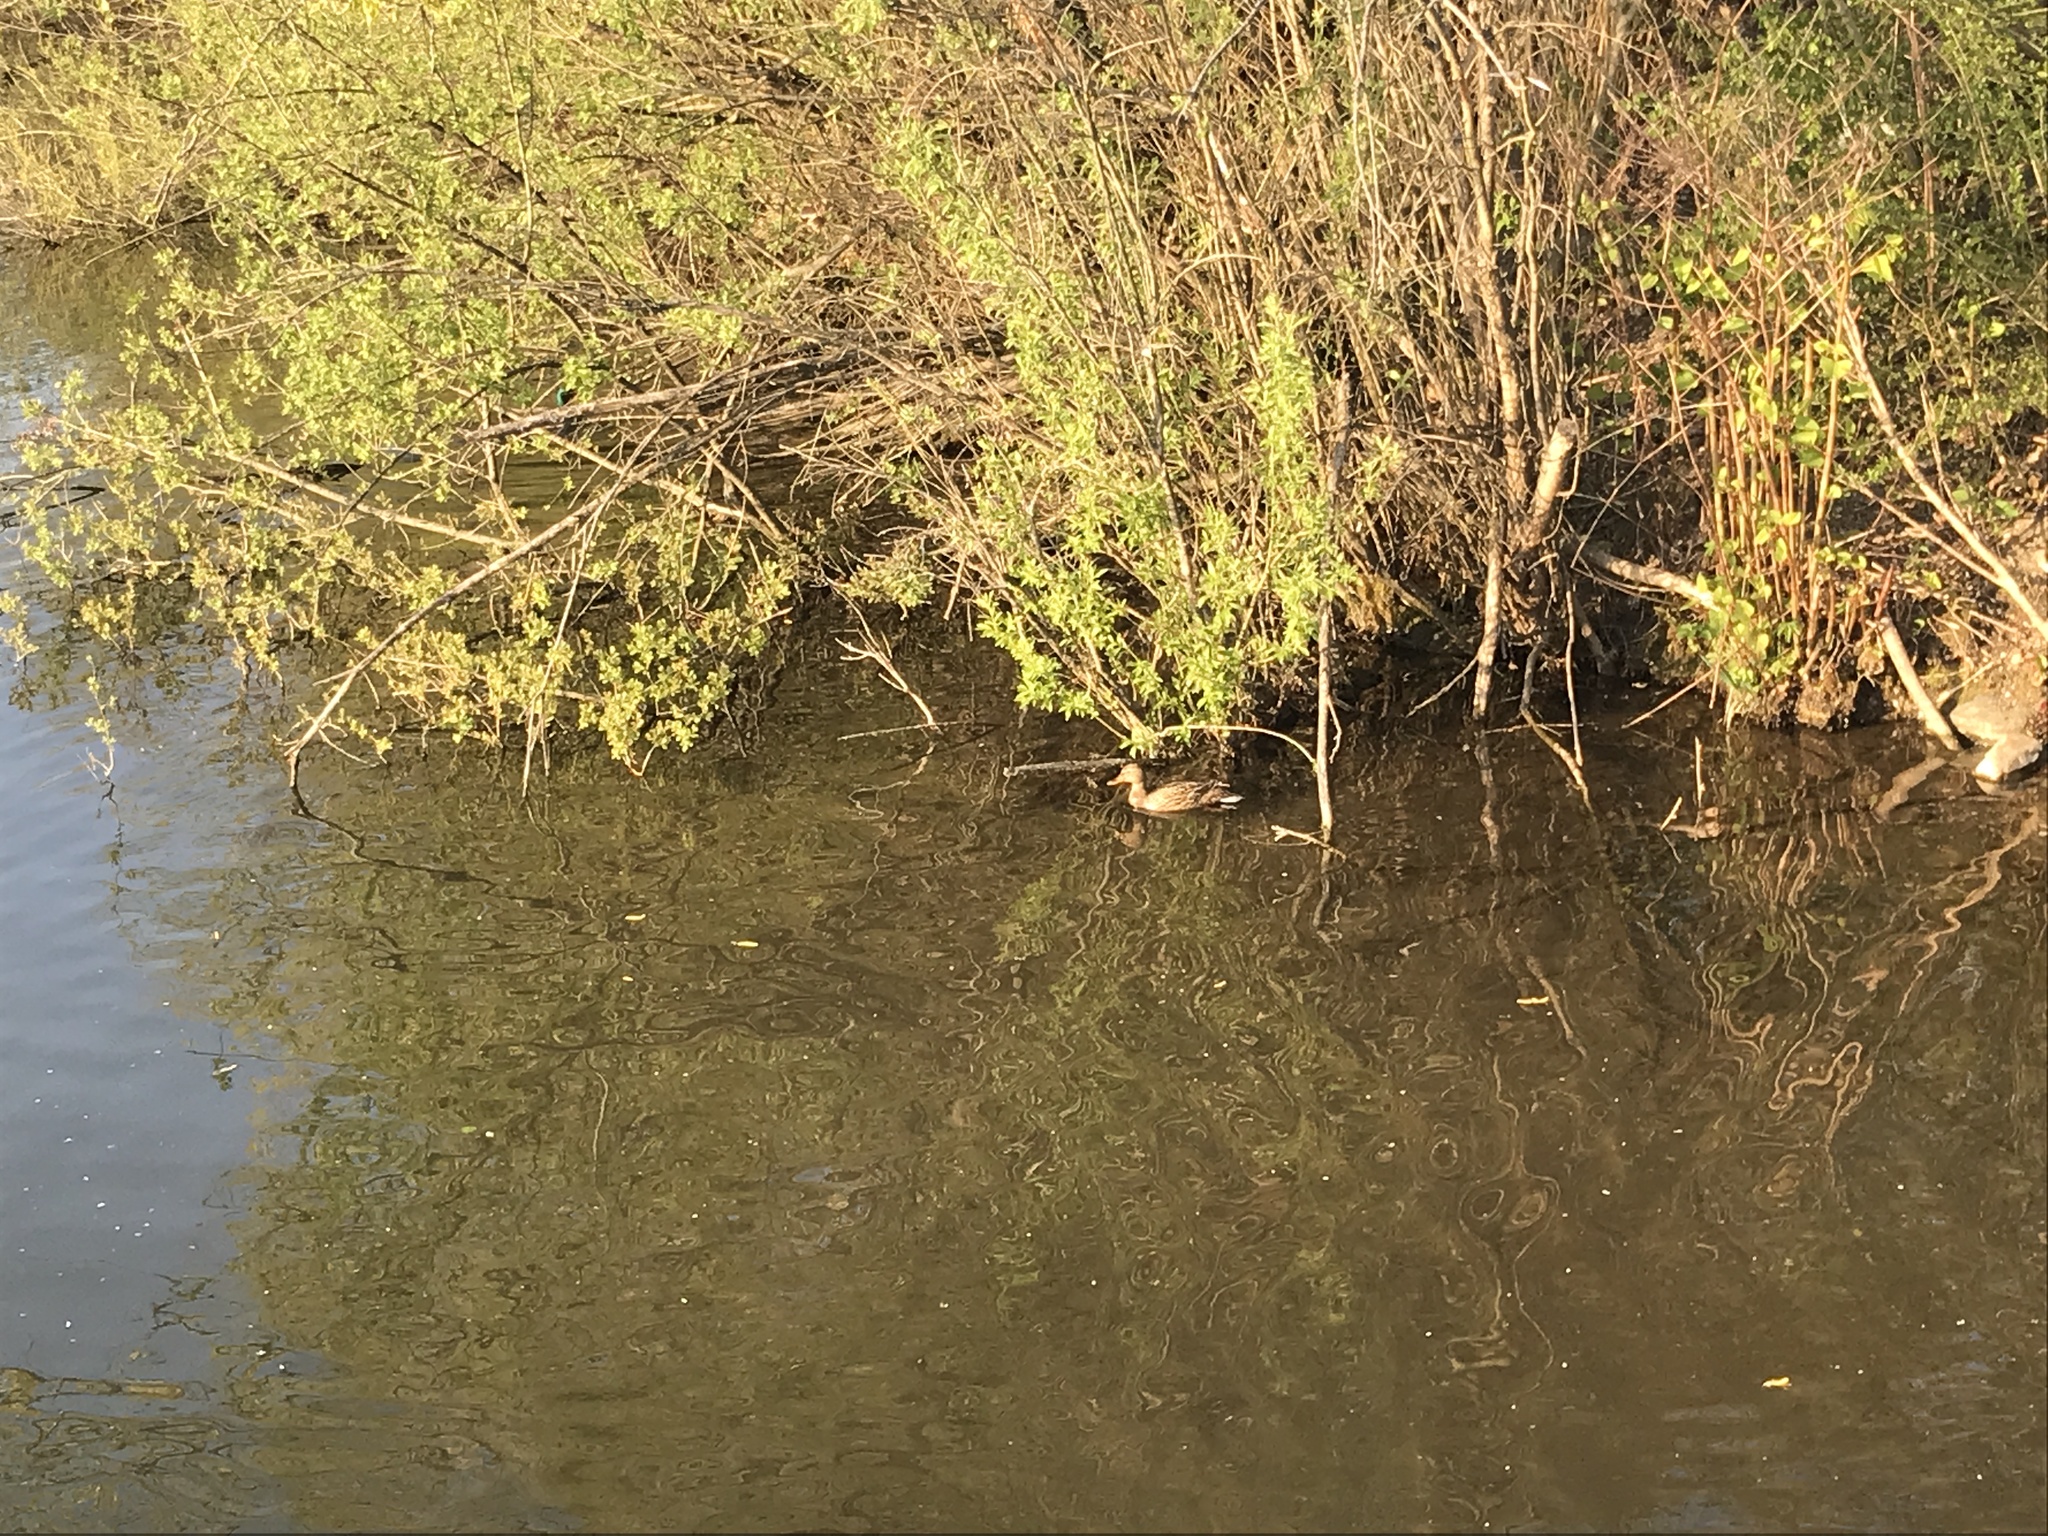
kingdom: Animalia
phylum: Chordata
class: Aves
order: Anseriformes
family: Anatidae
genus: Anas
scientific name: Anas platyrhynchos
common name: Mallard
